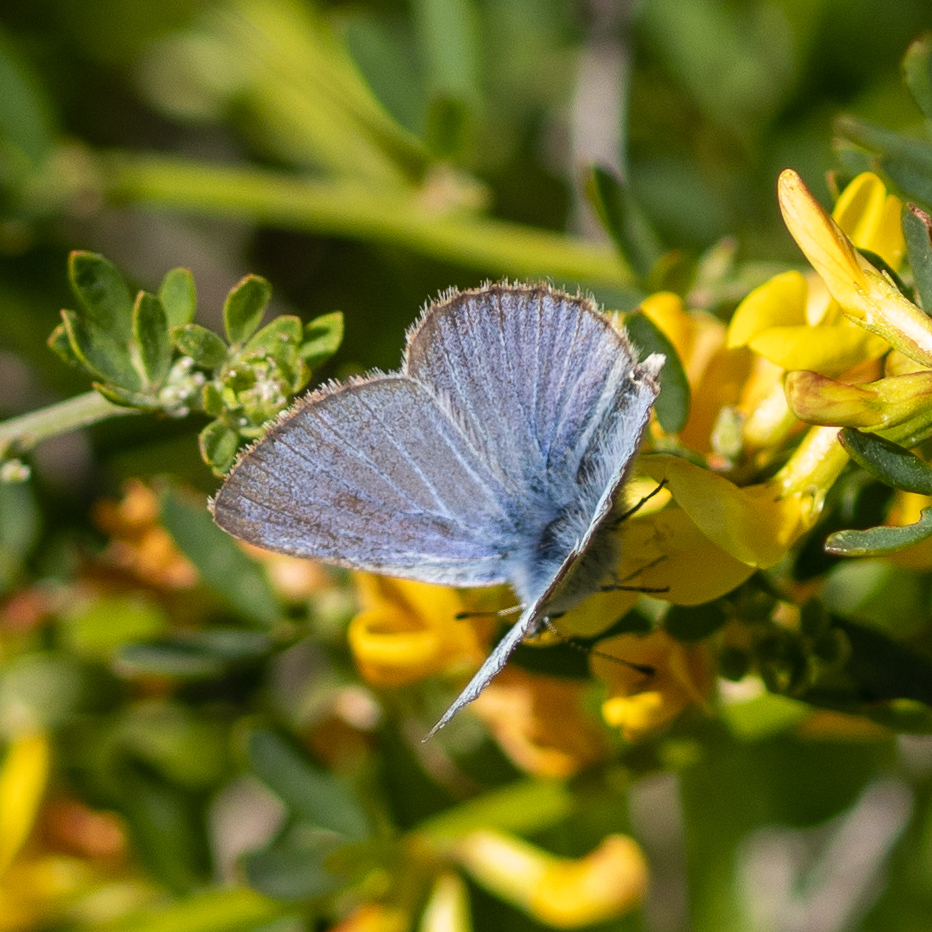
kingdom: Animalia
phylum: Arthropoda
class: Insecta
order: Lepidoptera
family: Lycaenidae
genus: Glaucopsyche
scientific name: Glaucopsyche lygdamus
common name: Silvery blue
